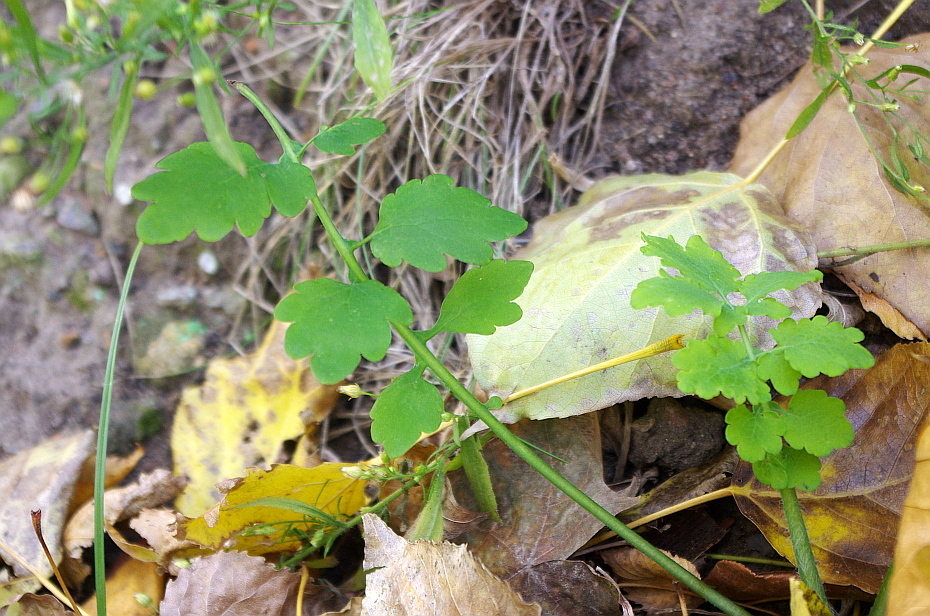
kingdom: Plantae
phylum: Tracheophyta
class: Magnoliopsida
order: Ranunculales
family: Papaveraceae
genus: Chelidonium
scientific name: Chelidonium majus
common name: Greater celandine
